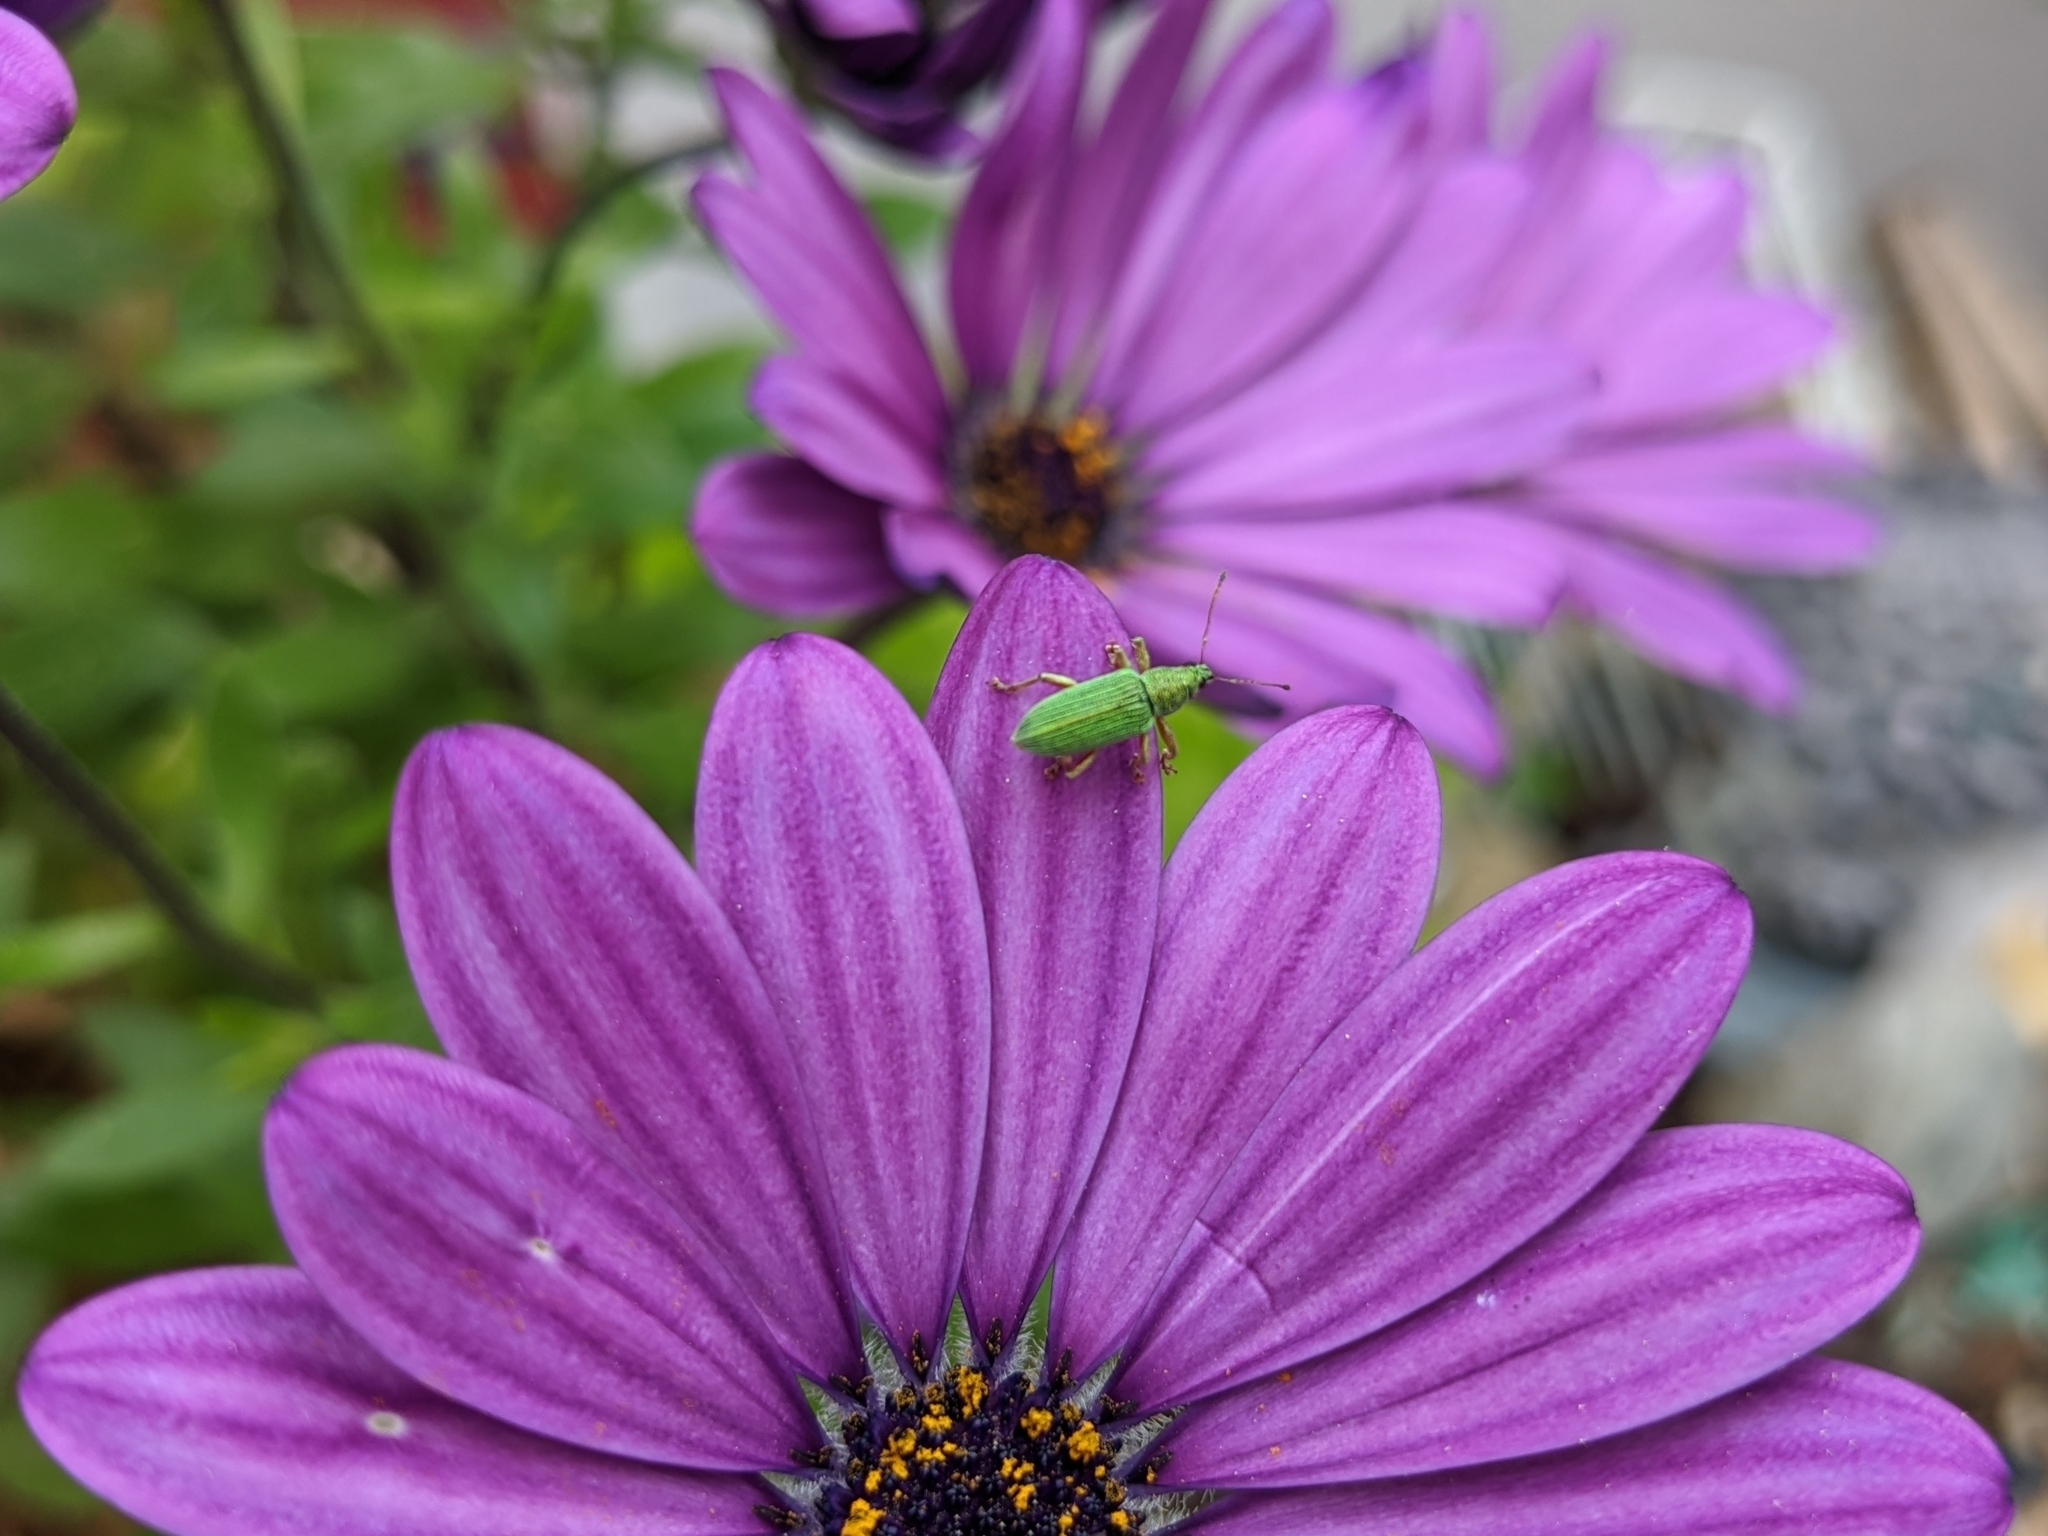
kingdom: Animalia
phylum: Arthropoda
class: Insecta
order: Coleoptera
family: Curculionidae
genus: Polydrusus
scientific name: Polydrusus formosus
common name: Weevil
